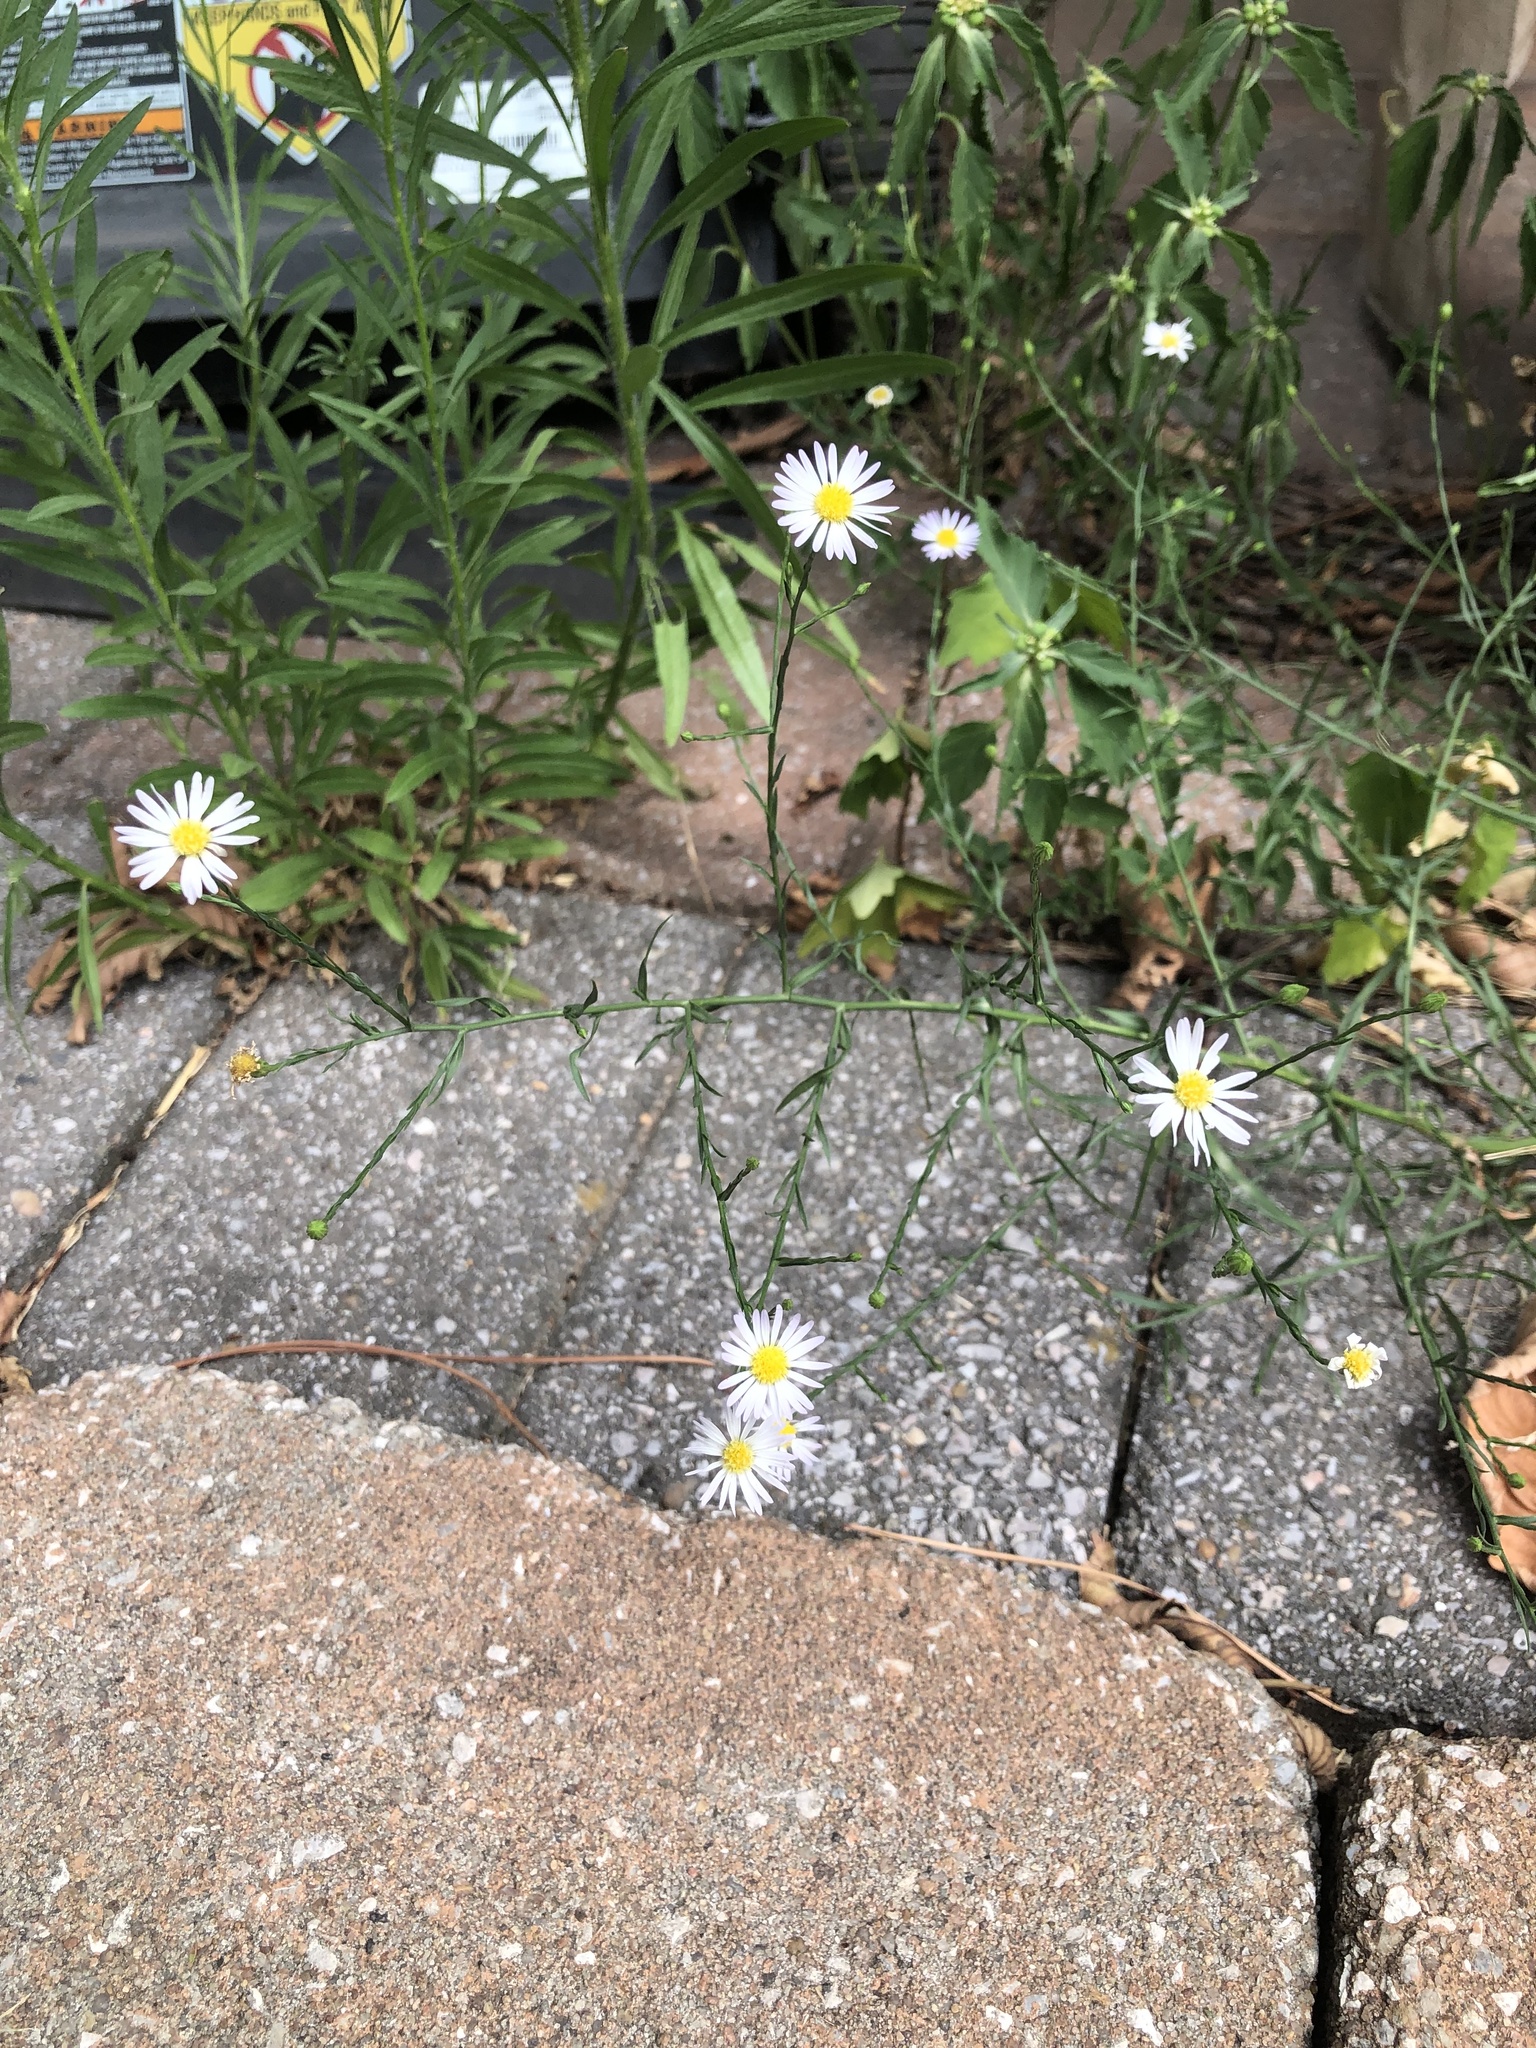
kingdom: Plantae
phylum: Tracheophyta
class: Magnoliopsida
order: Asterales
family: Asteraceae
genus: Boltonia
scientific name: Boltonia diffusa
